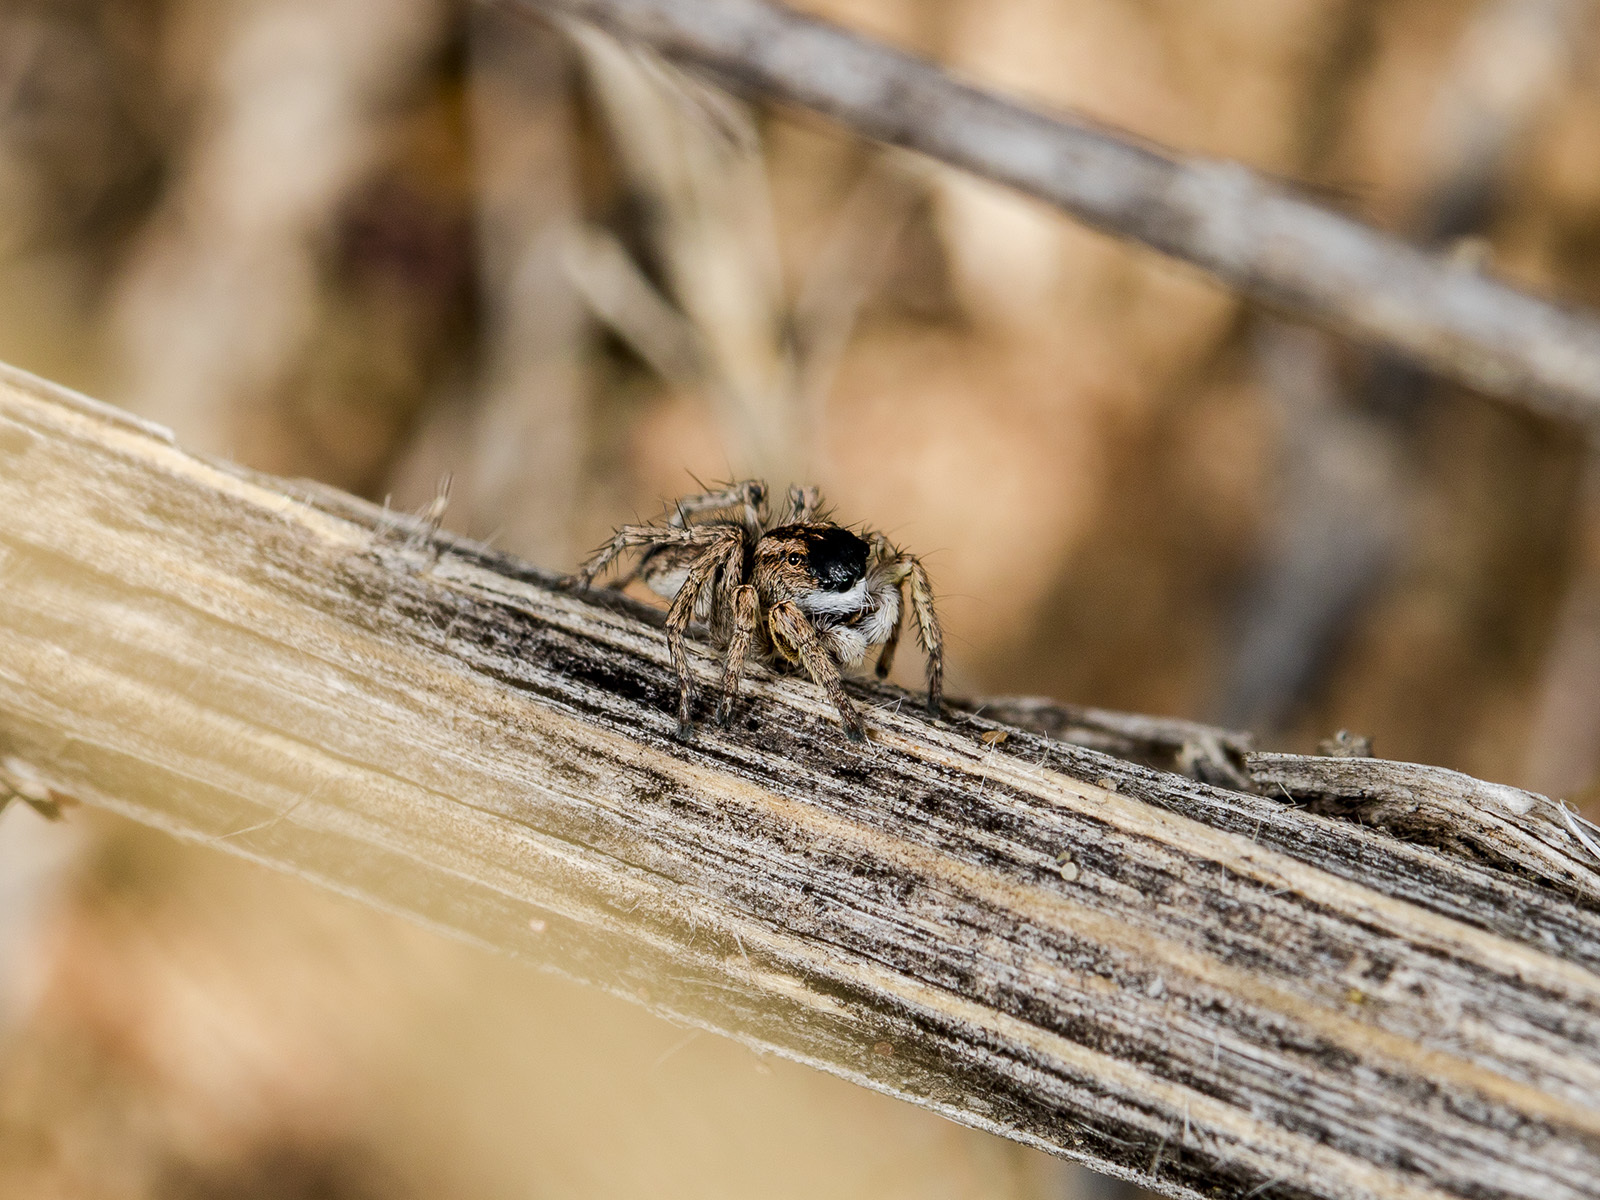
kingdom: Animalia
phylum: Arthropoda
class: Arachnida
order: Araneae
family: Salticidae
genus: Aelurillus
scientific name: Aelurillus m-nigrum
